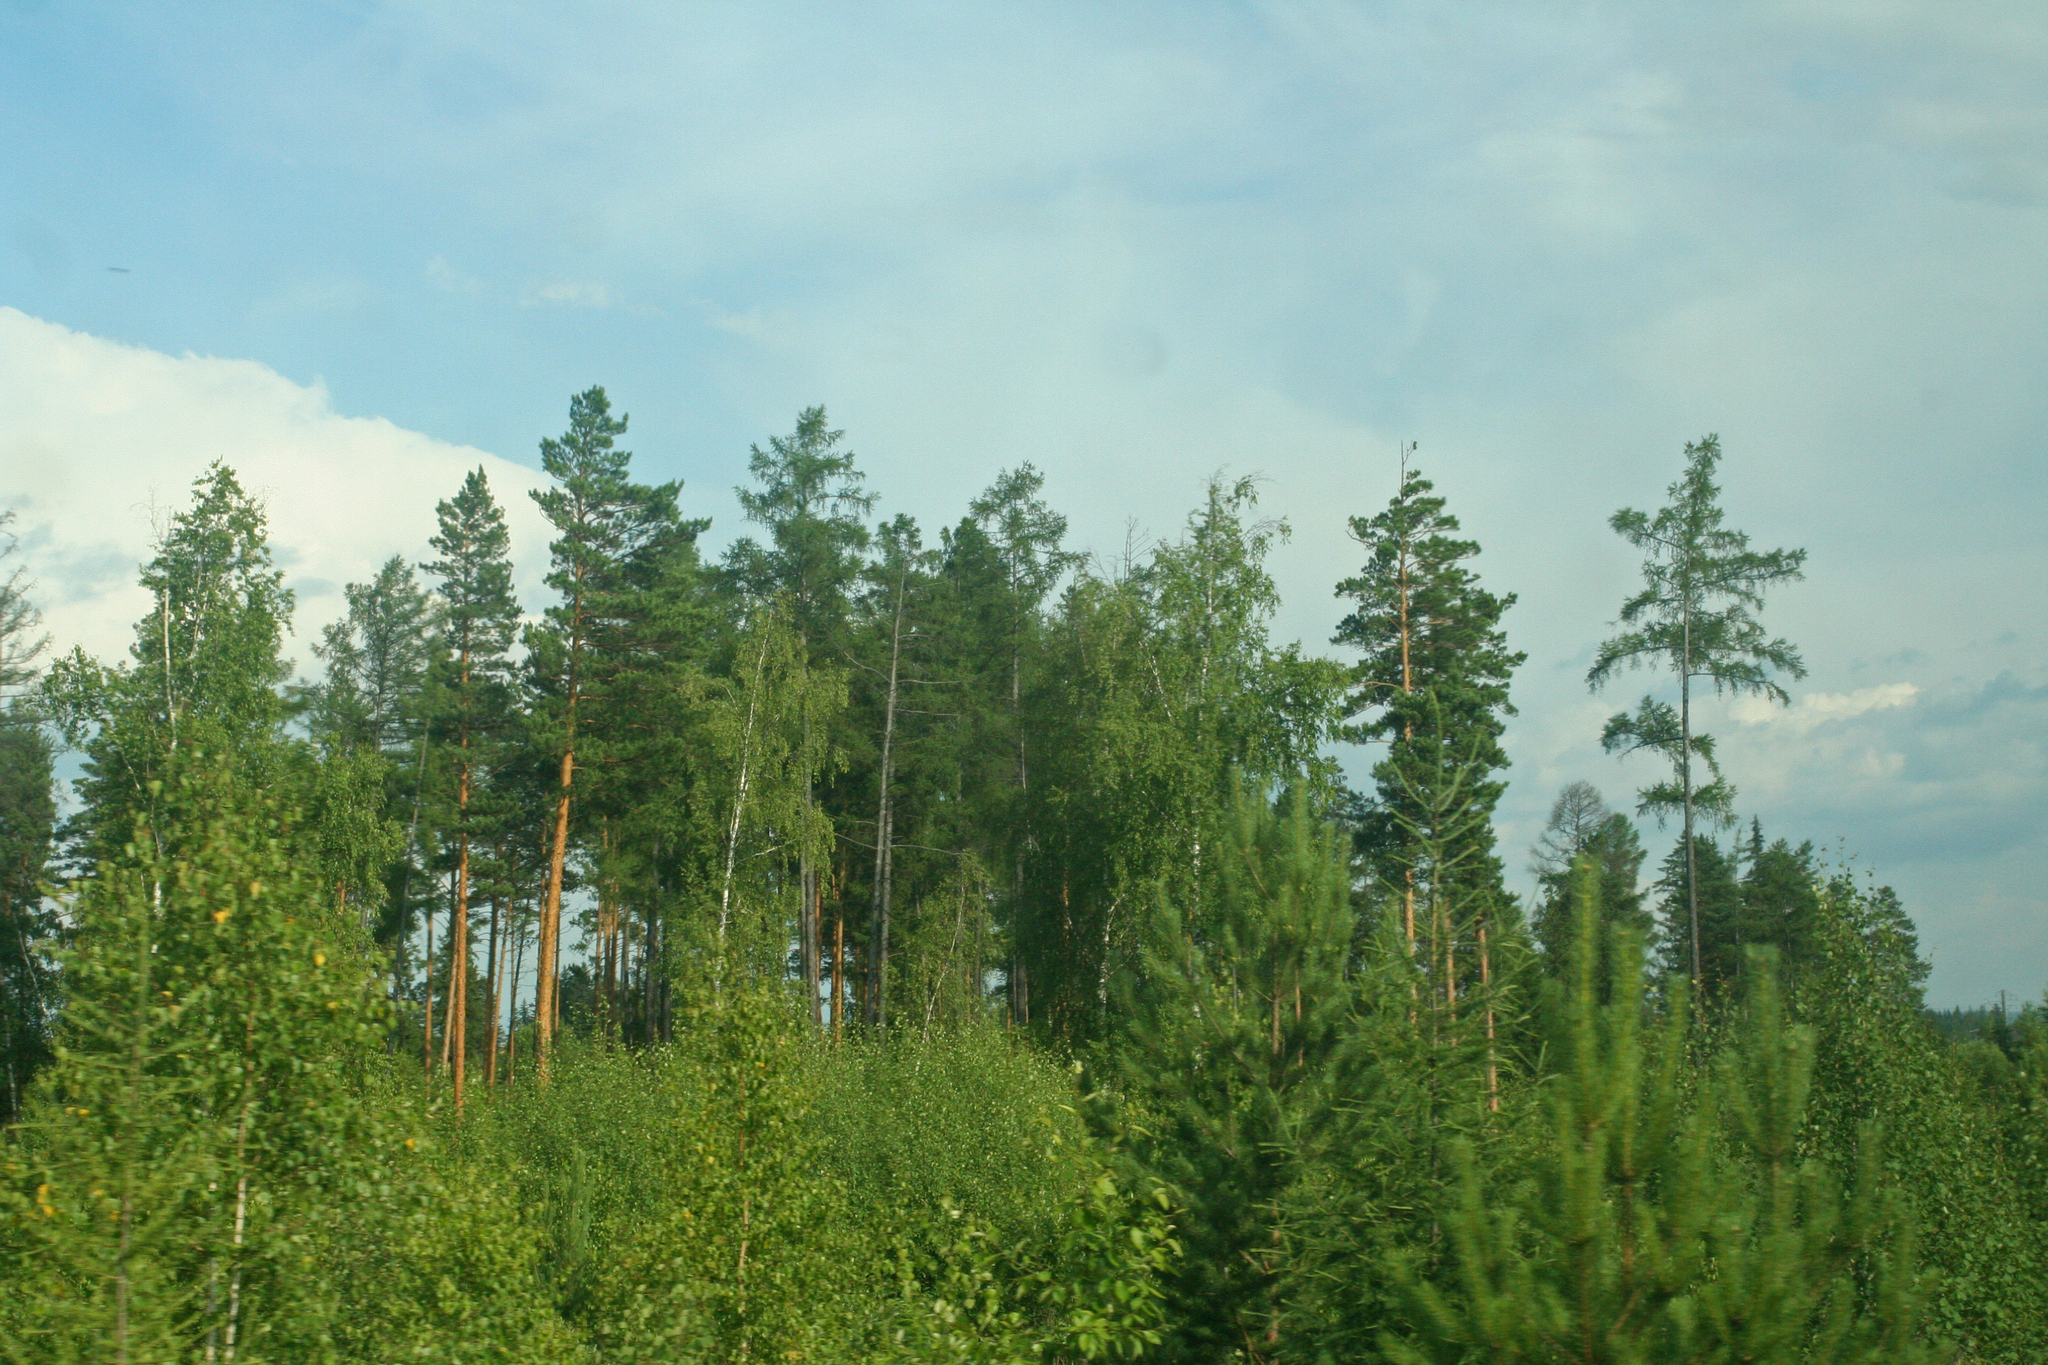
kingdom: Plantae
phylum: Tracheophyta
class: Pinopsida
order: Pinales
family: Pinaceae
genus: Pinus
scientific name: Pinus sylvestris
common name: Scots pine
